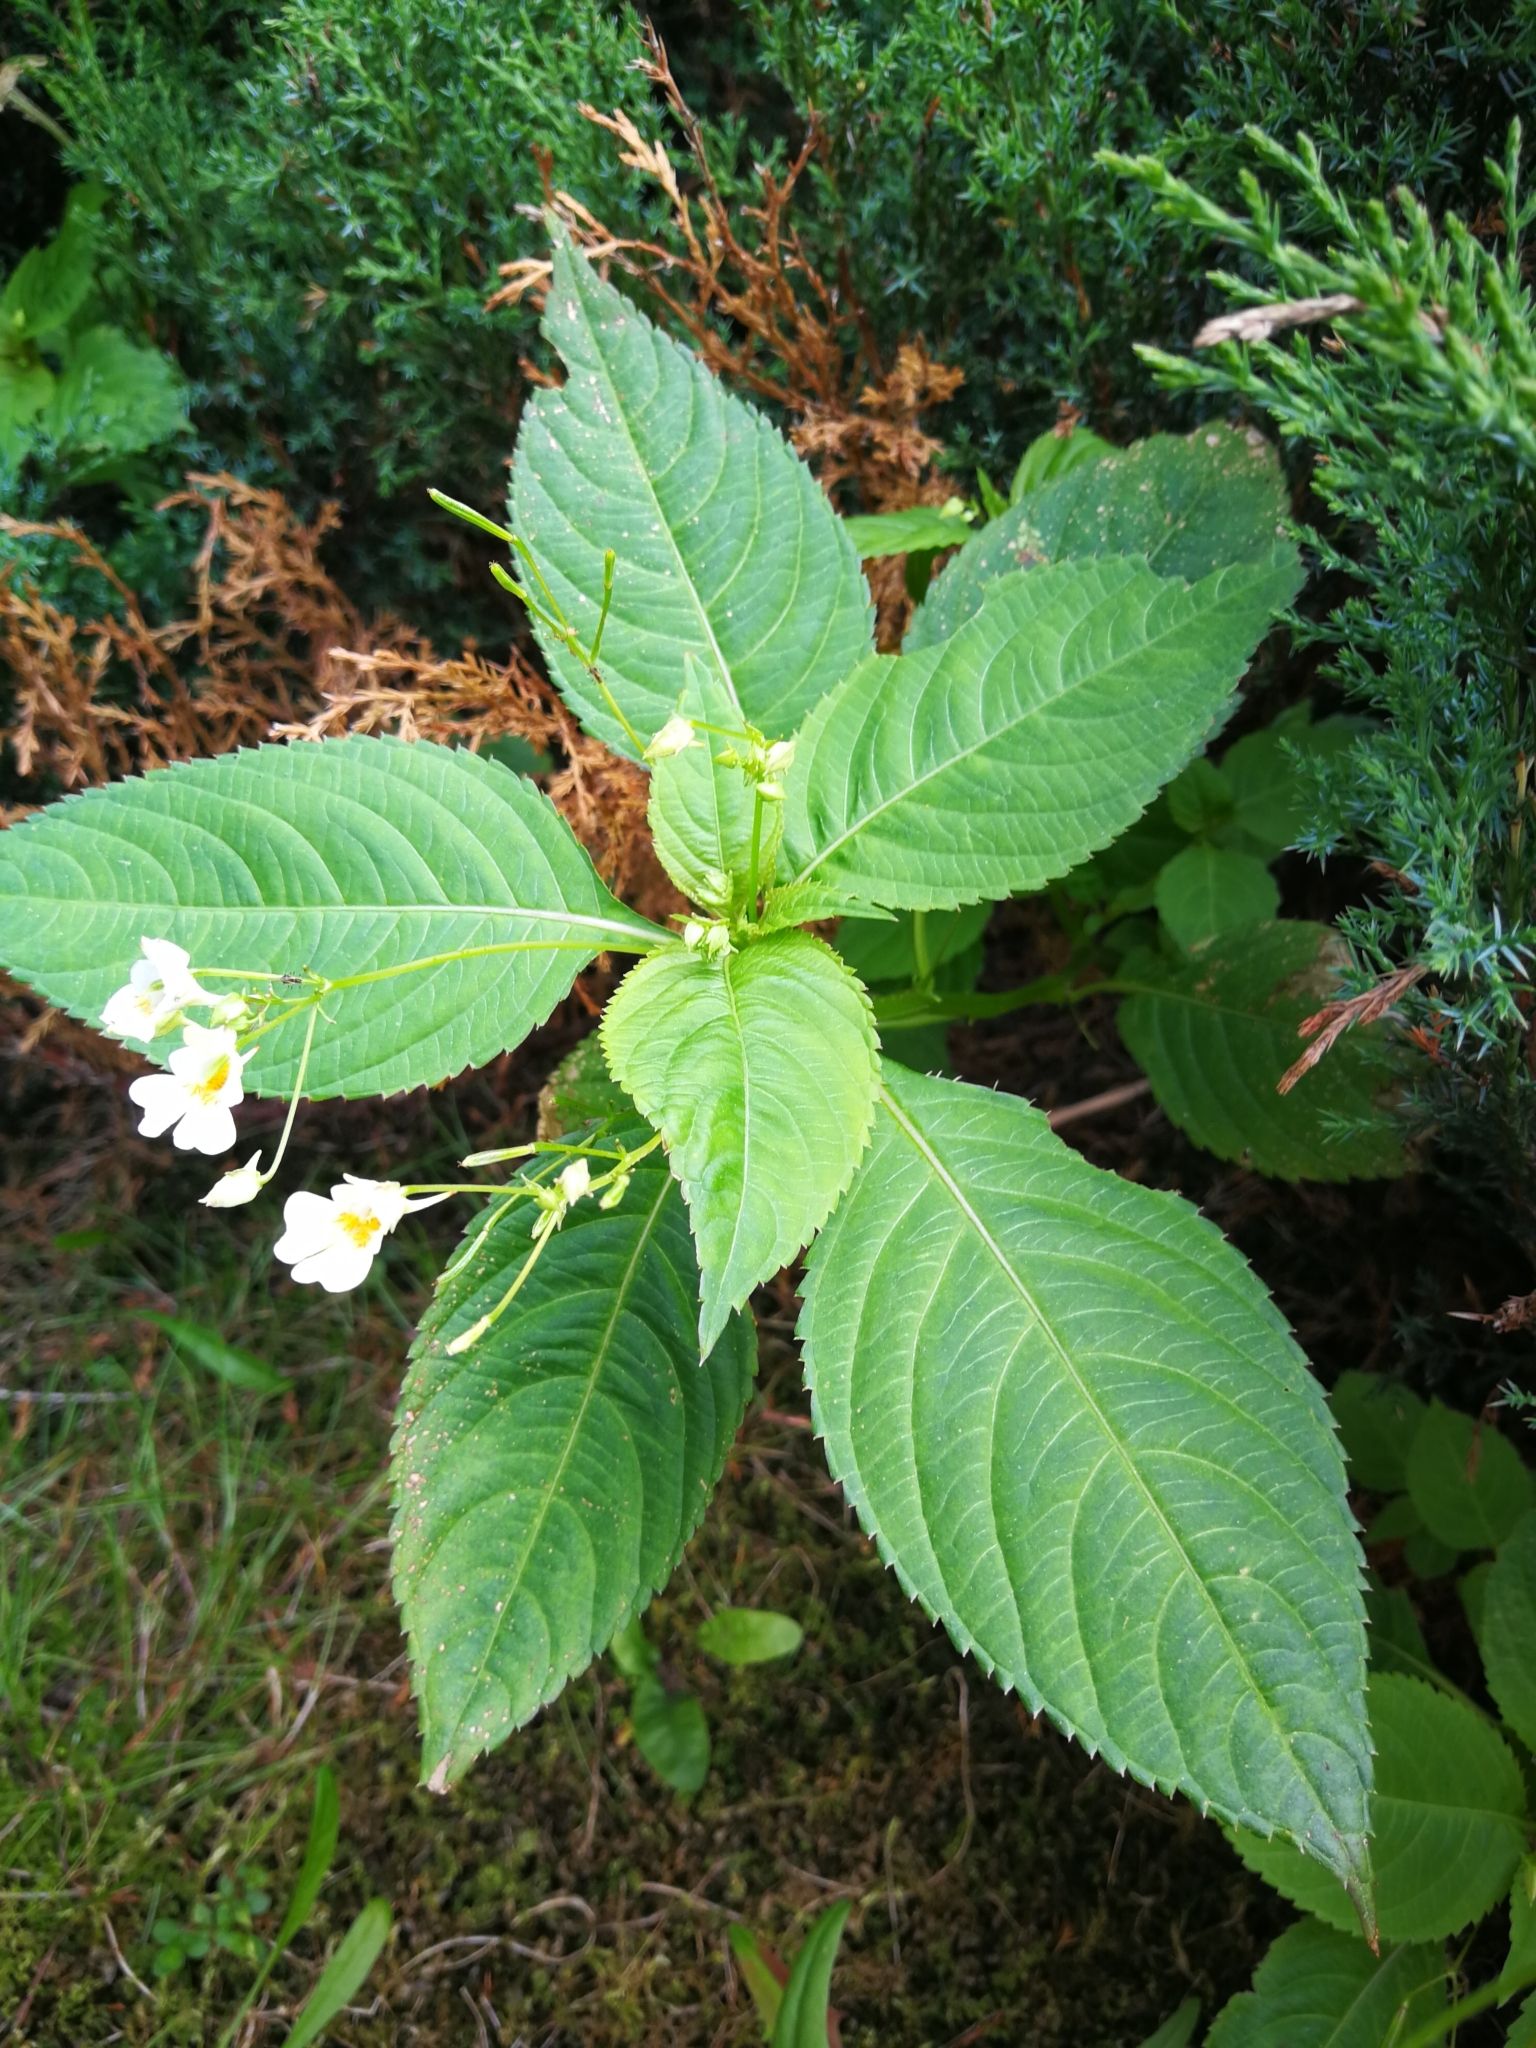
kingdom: Plantae
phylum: Tracheophyta
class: Magnoliopsida
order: Ericales
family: Balsaminaceae
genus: Impatiens
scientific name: Impatiens parviflora
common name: Small balsam
